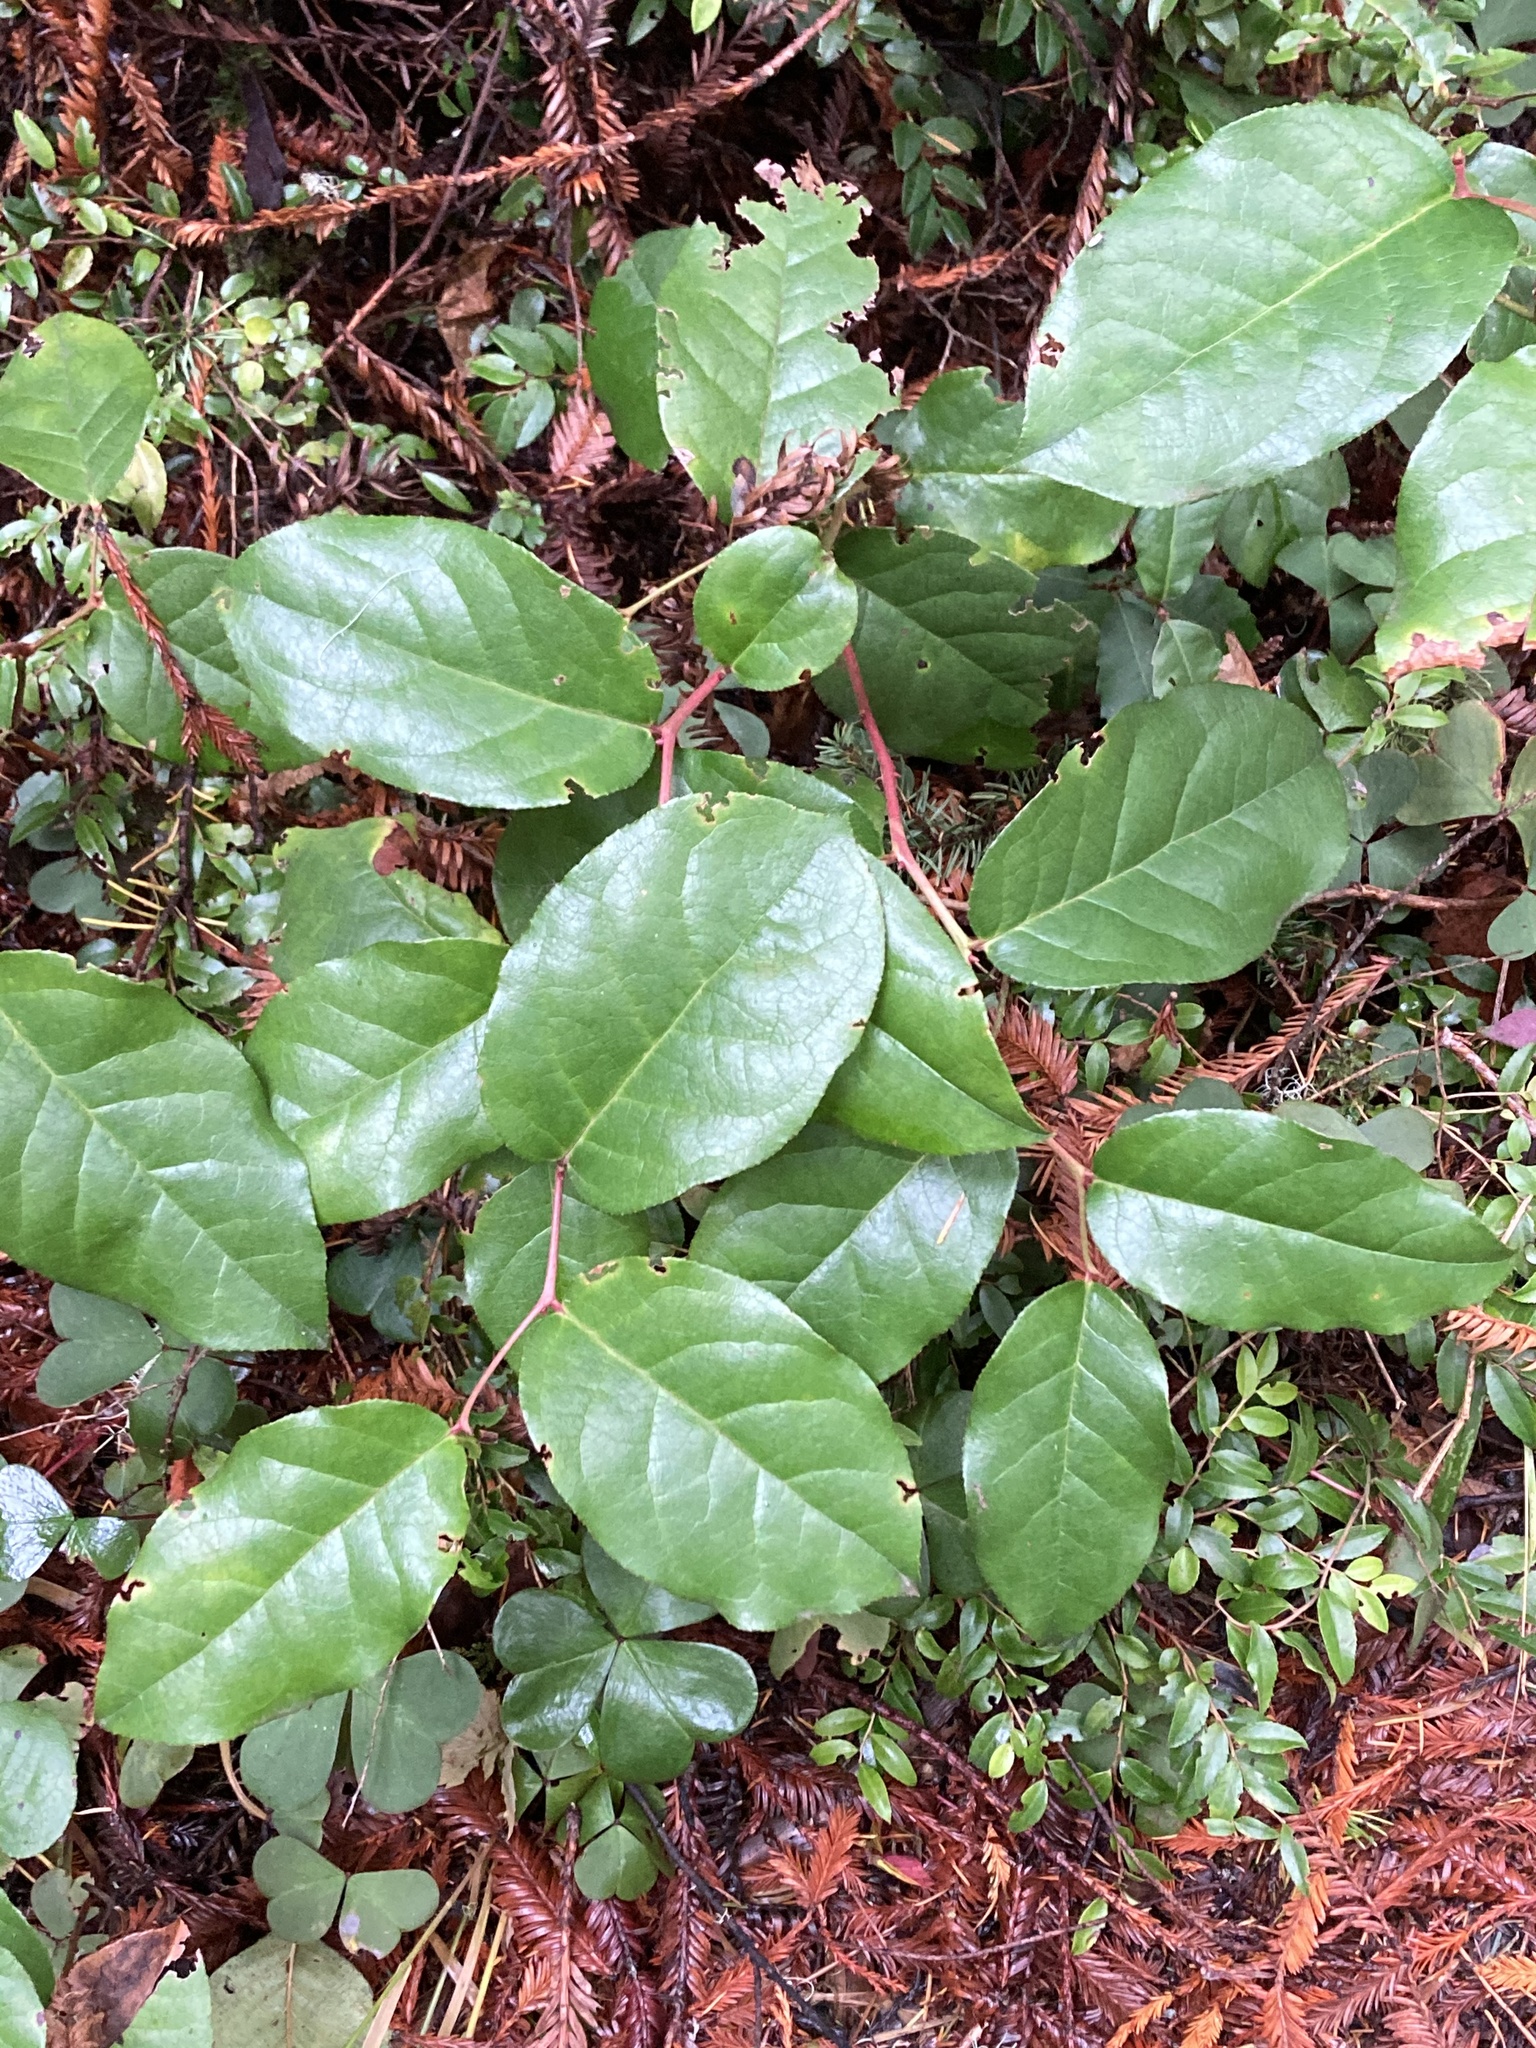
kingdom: Plantae
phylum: Tracheophyta
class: Magnoliopsida
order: Ericales
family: Ericaceae
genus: Gaultheria
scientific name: Gaultheria shallon
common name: Shallon
